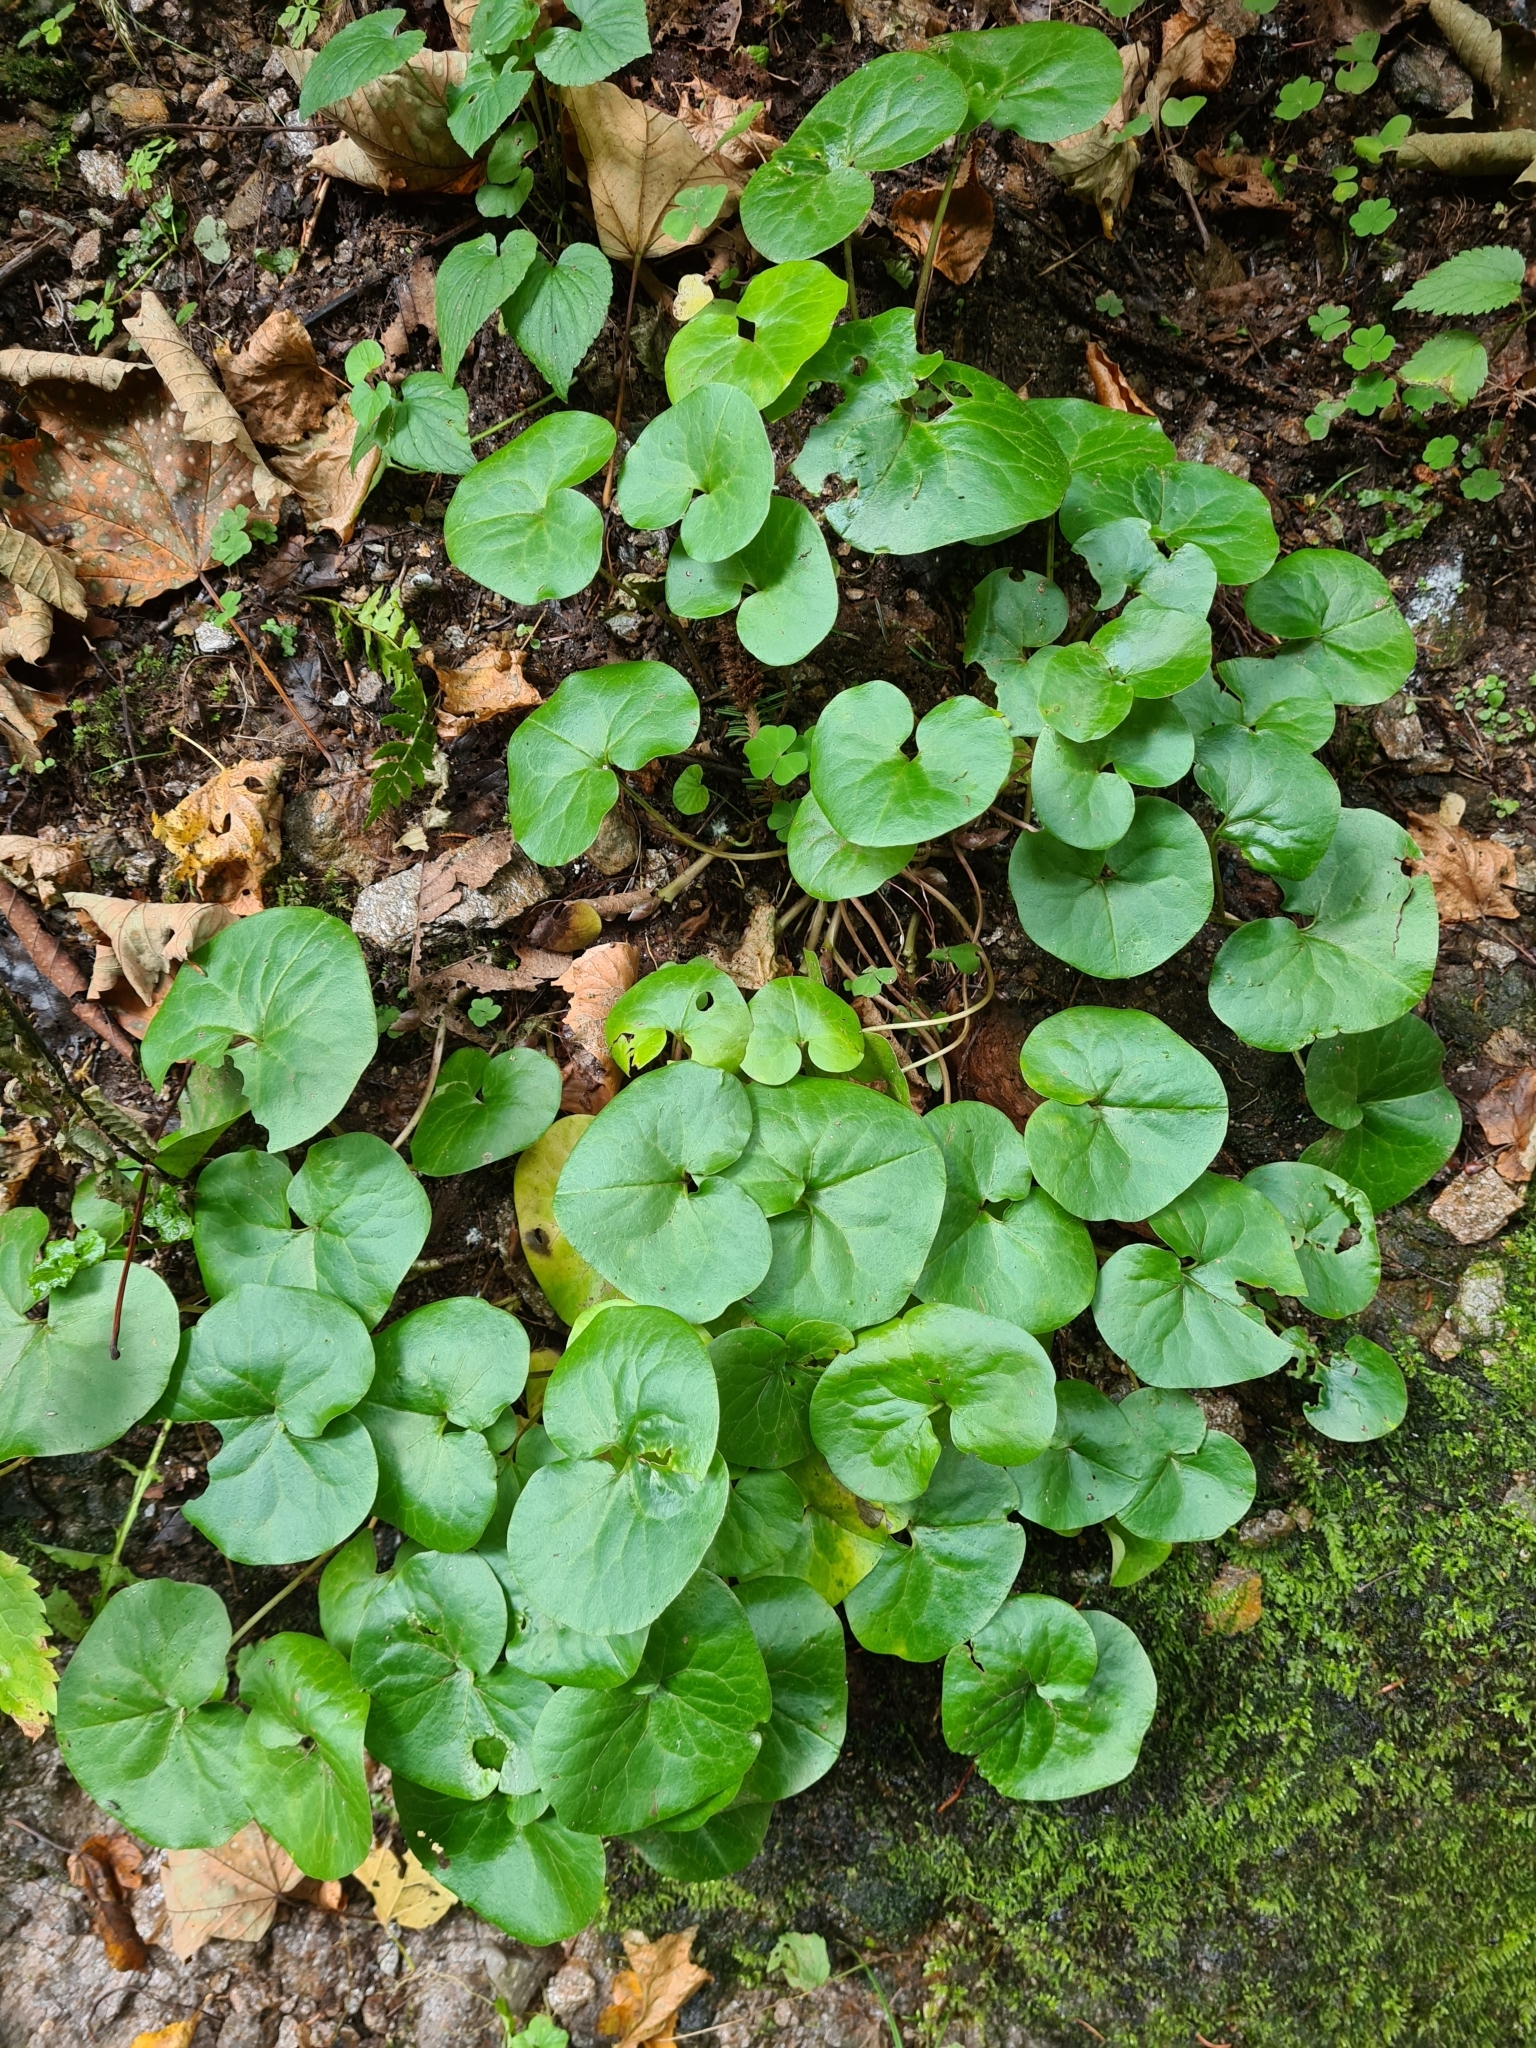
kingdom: Plantae
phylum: Tracheophyta
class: Magnoliopsida
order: Piperales
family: Aristolochiaceae
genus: Asarum
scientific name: Asarum europaeum
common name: Asarabacca
